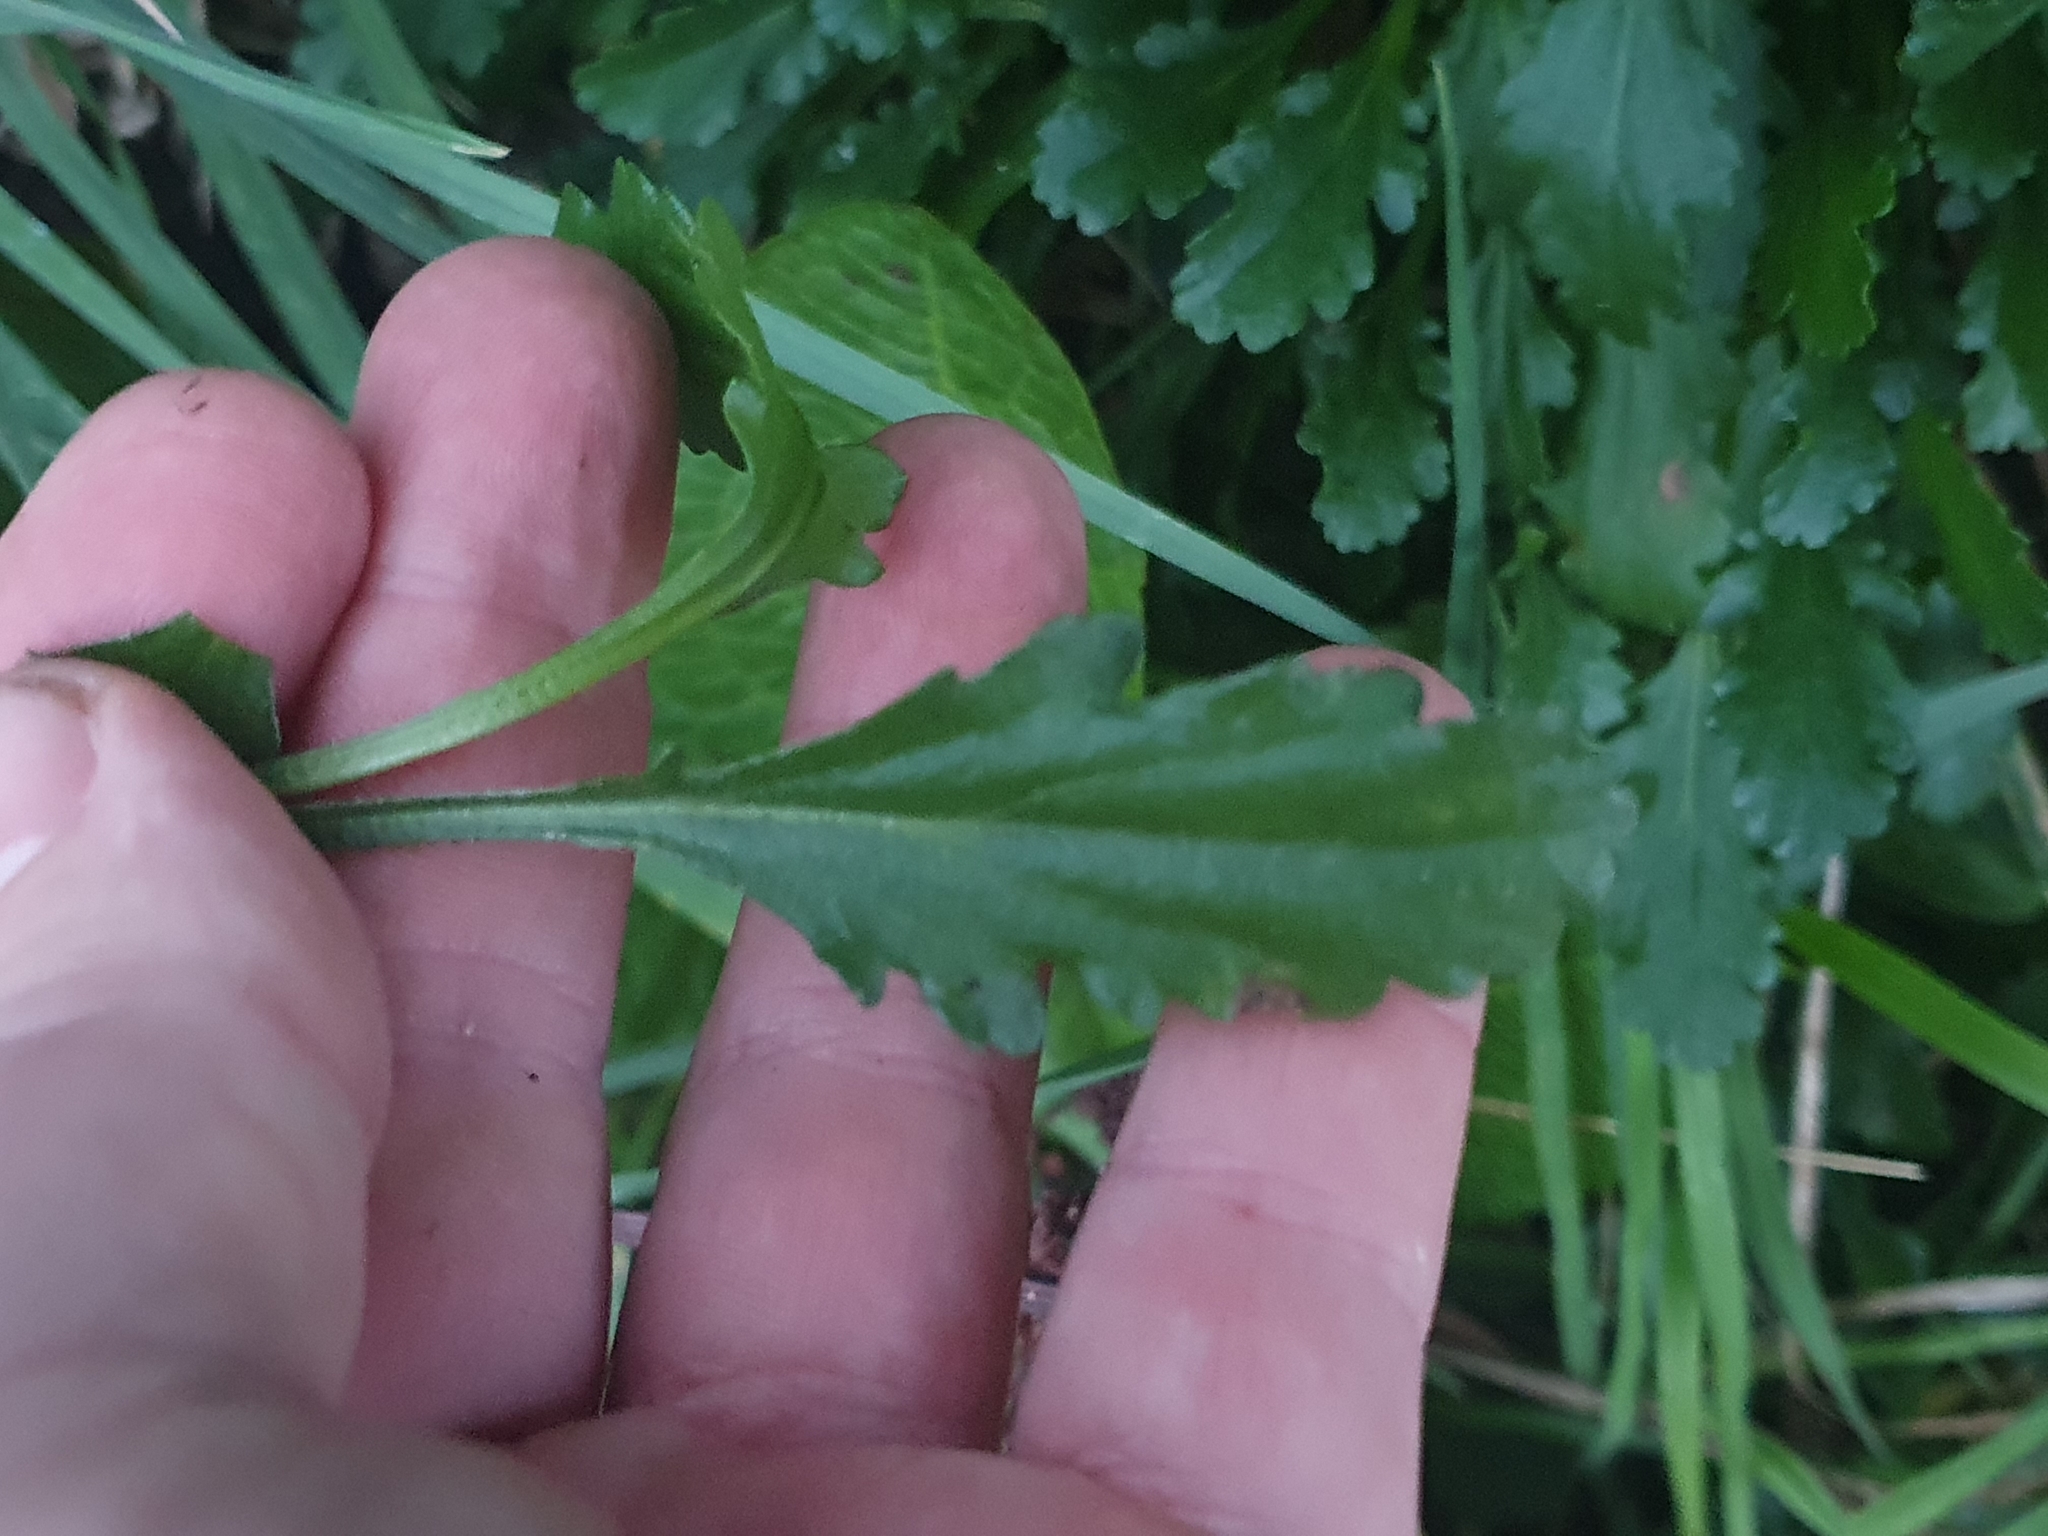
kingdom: Plantae
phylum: Tracheophyta
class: Magnoliopsida
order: Asterales
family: Asteraceae
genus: Leucanthemum
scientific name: Leucanthemum vulgare
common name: Oxeye daisy
